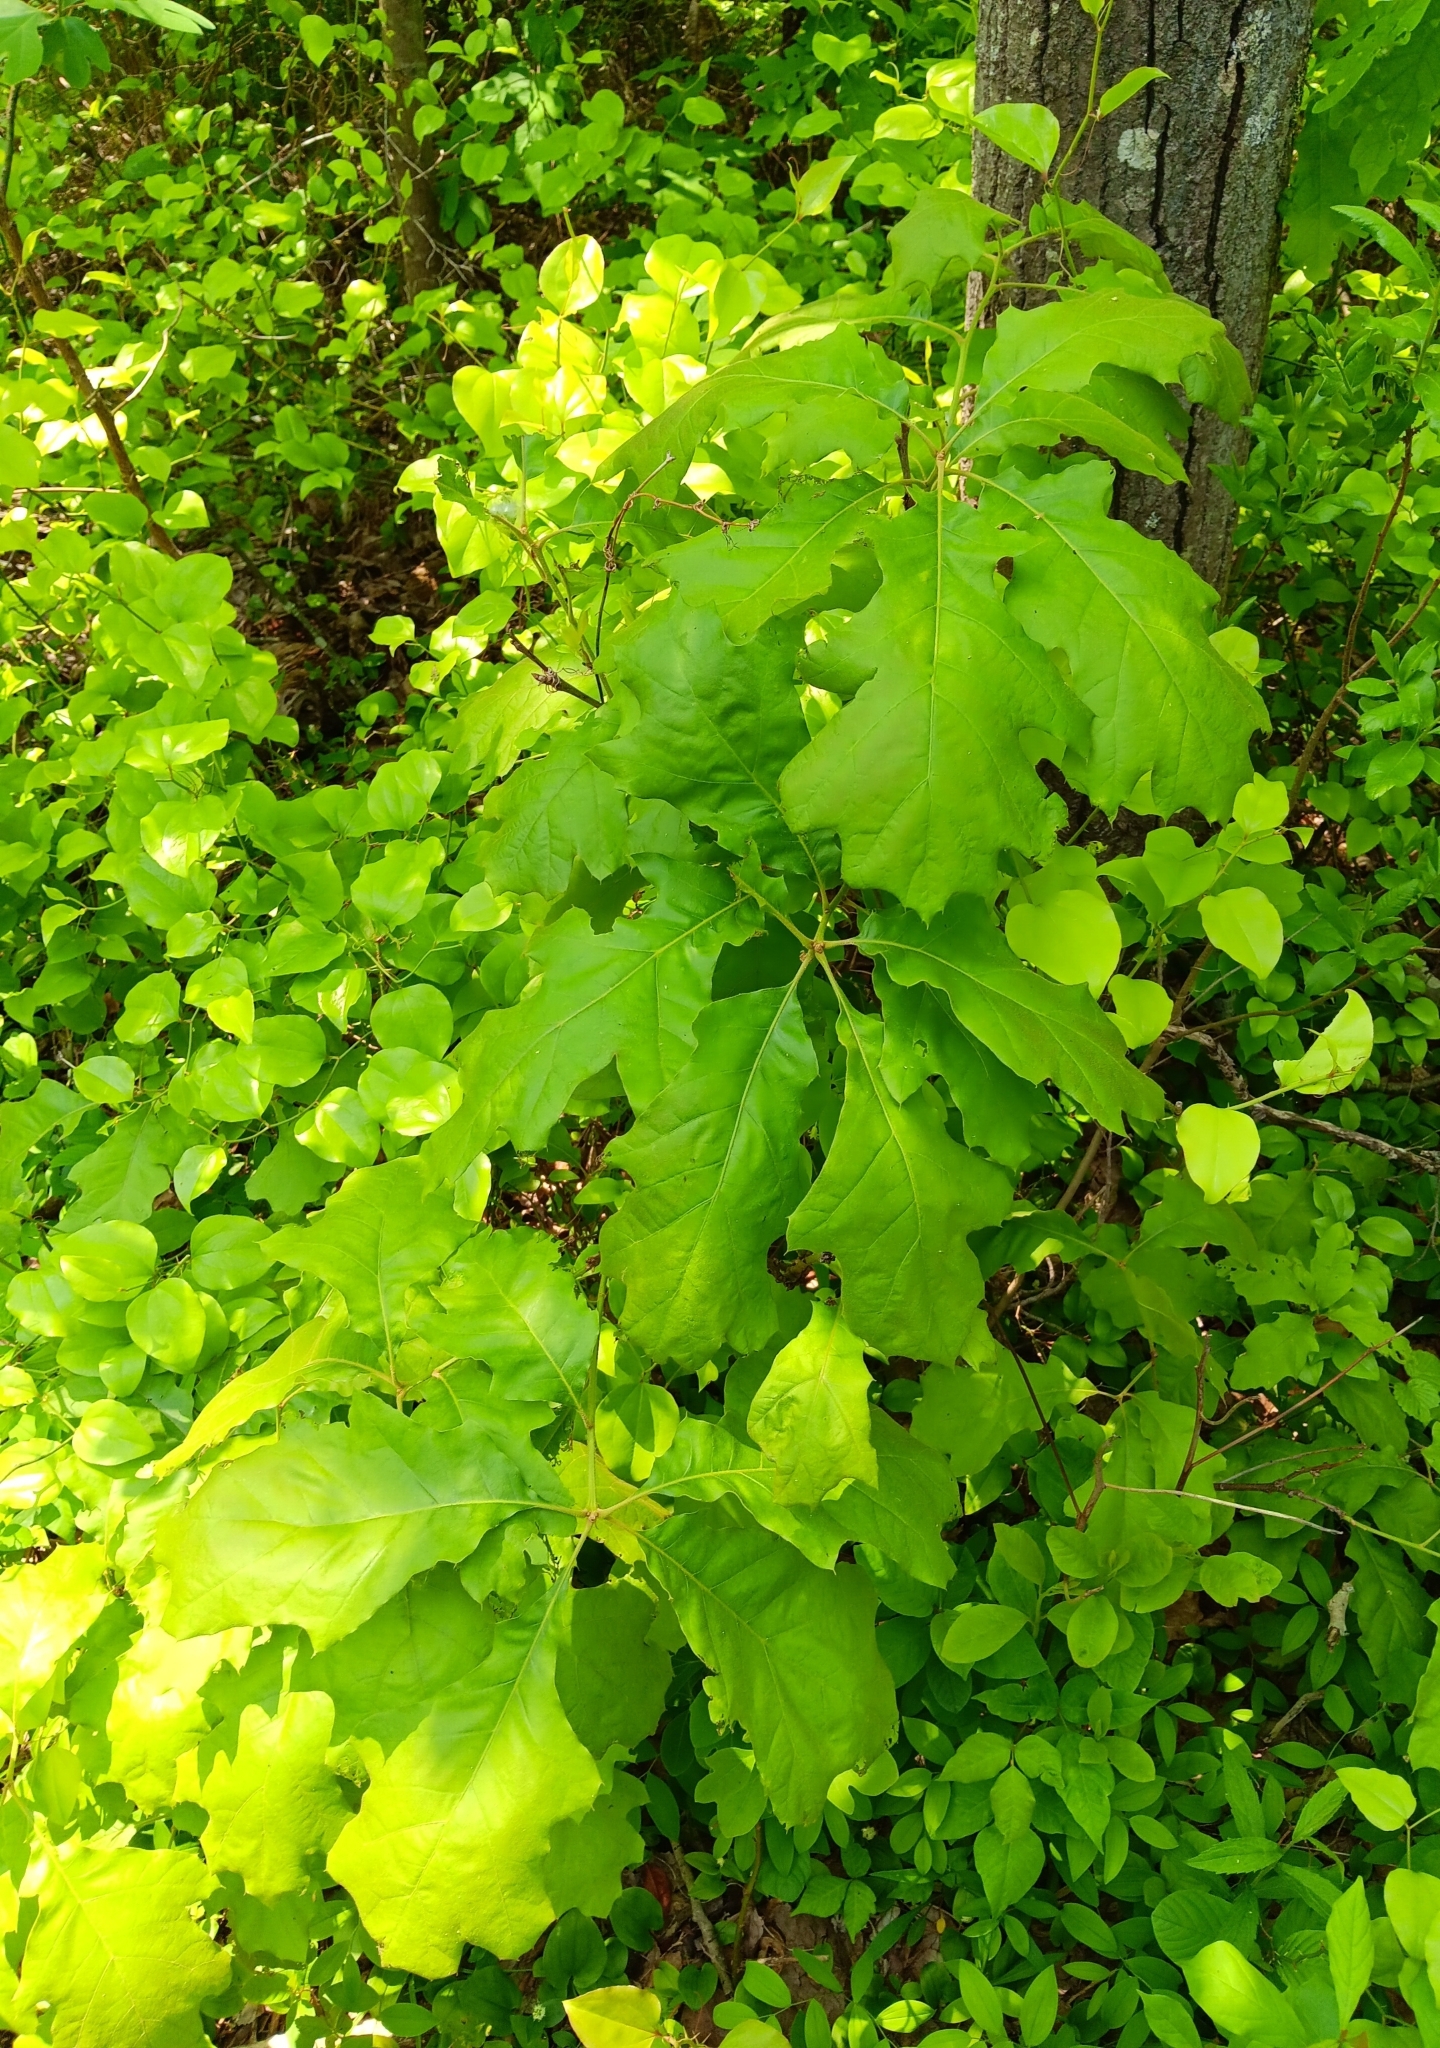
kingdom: Plantae
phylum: Tracheophyta
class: Magnoliopsida
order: Fagales
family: Fagaceae
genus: Quercus
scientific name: Quercus velutina
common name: Black oak
